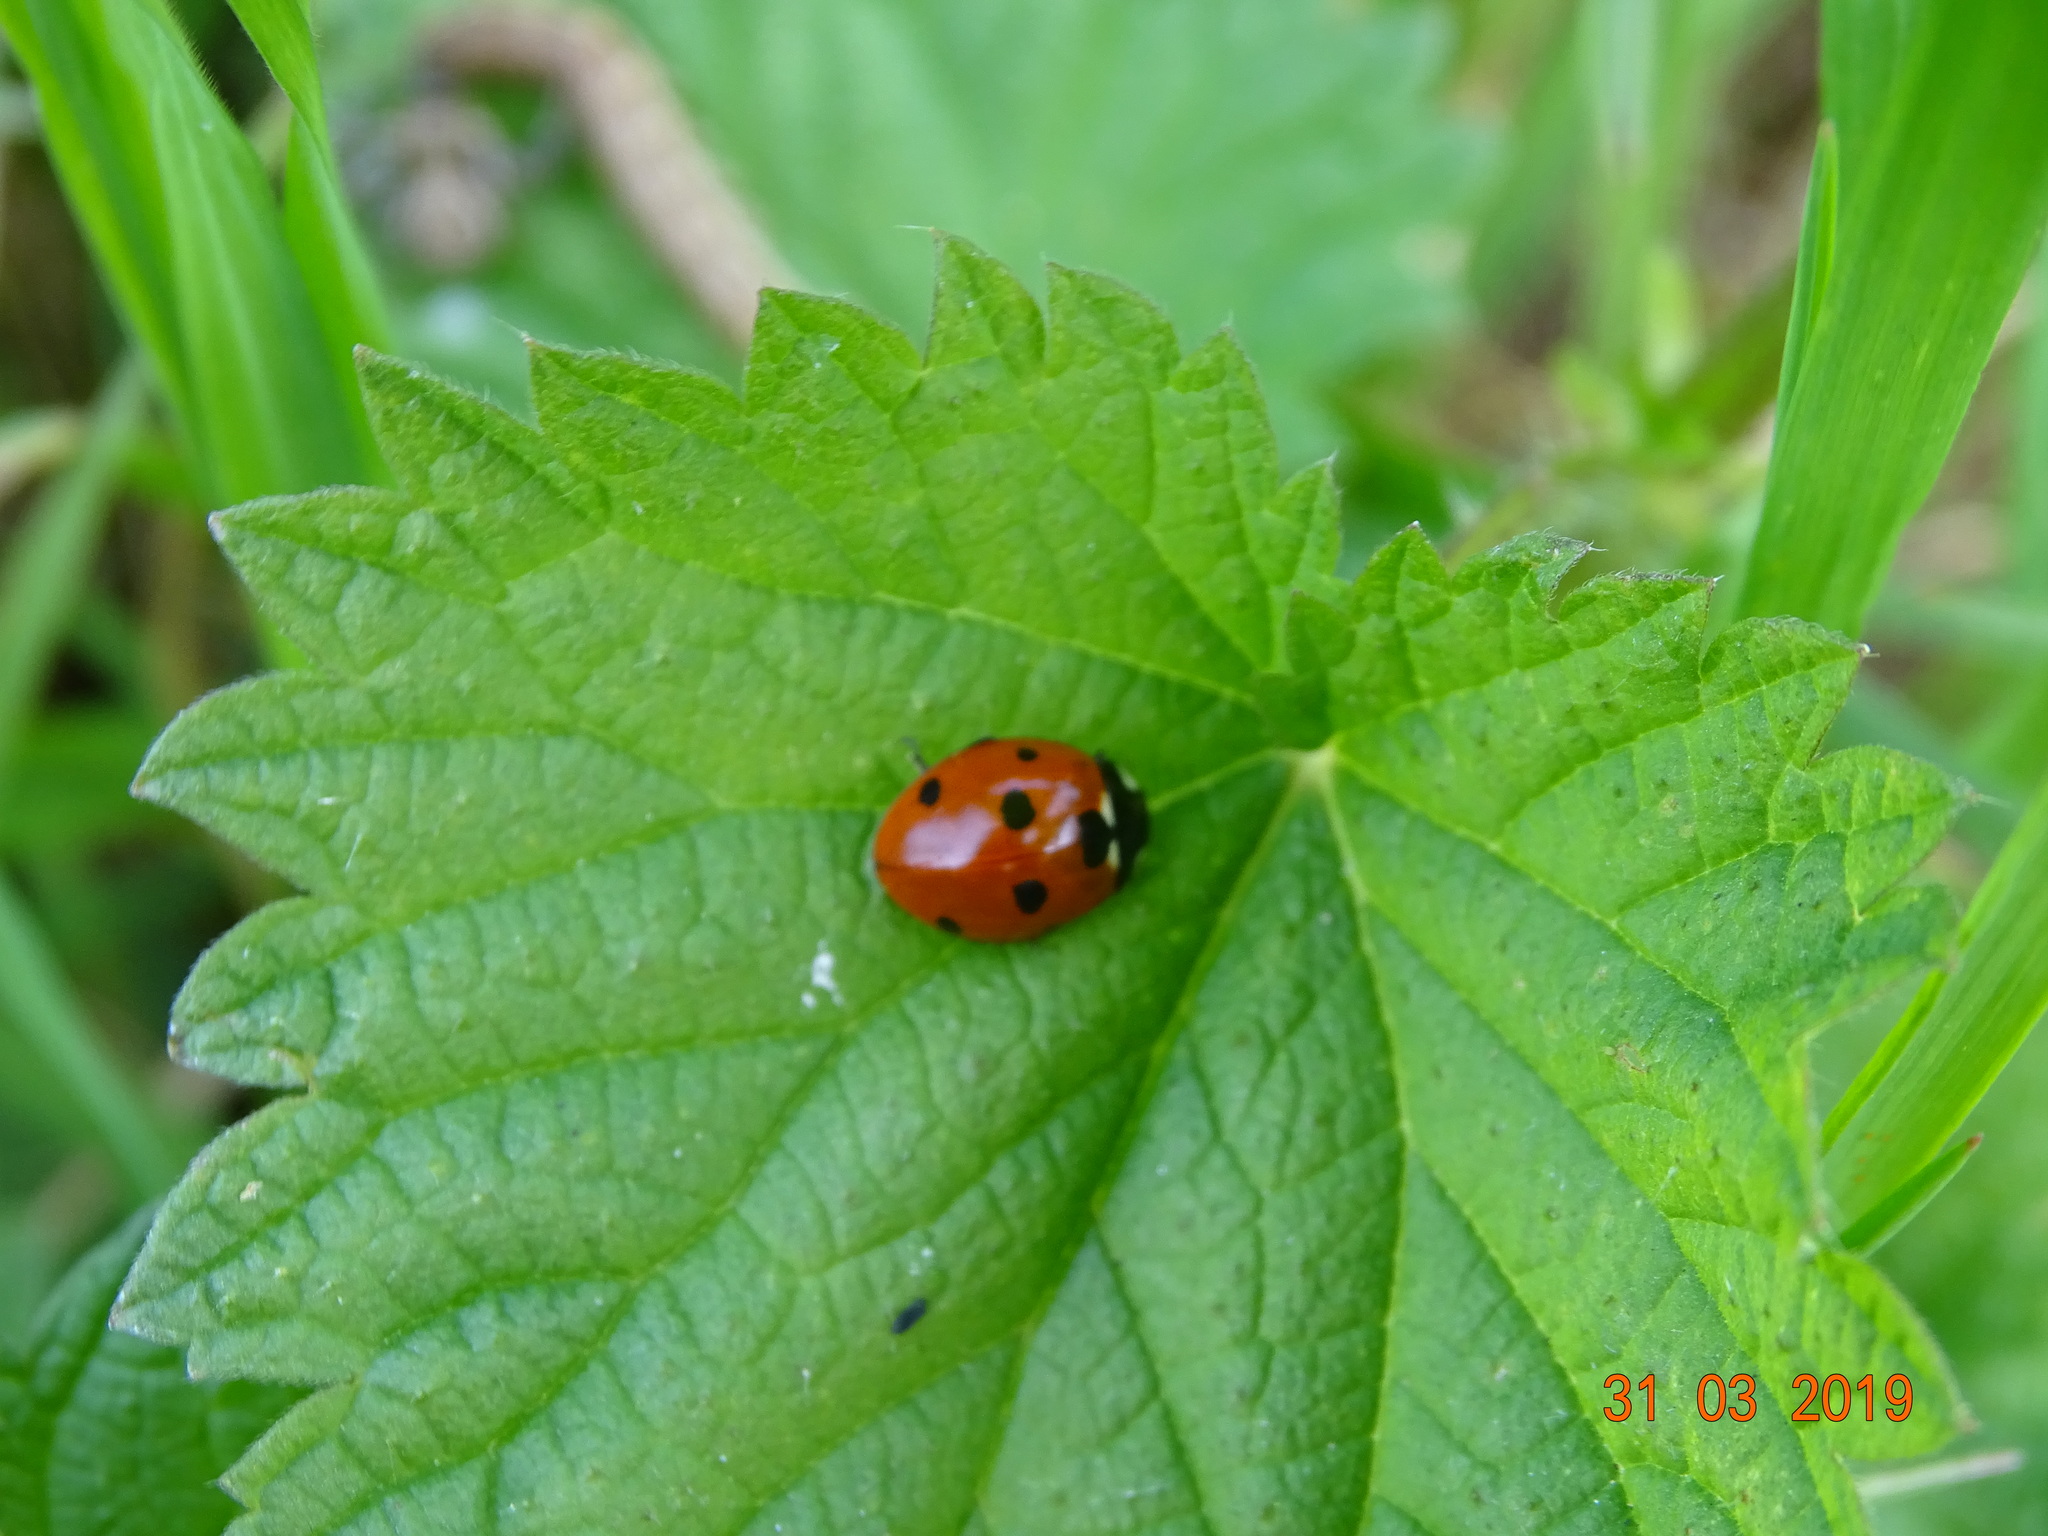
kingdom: Animalia
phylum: Arthropoda
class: Insecta
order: Coleoptera
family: Coccinellidae
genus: Coccinella
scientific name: Coccinella septempunctata
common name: Sevenspotted lady beetle
